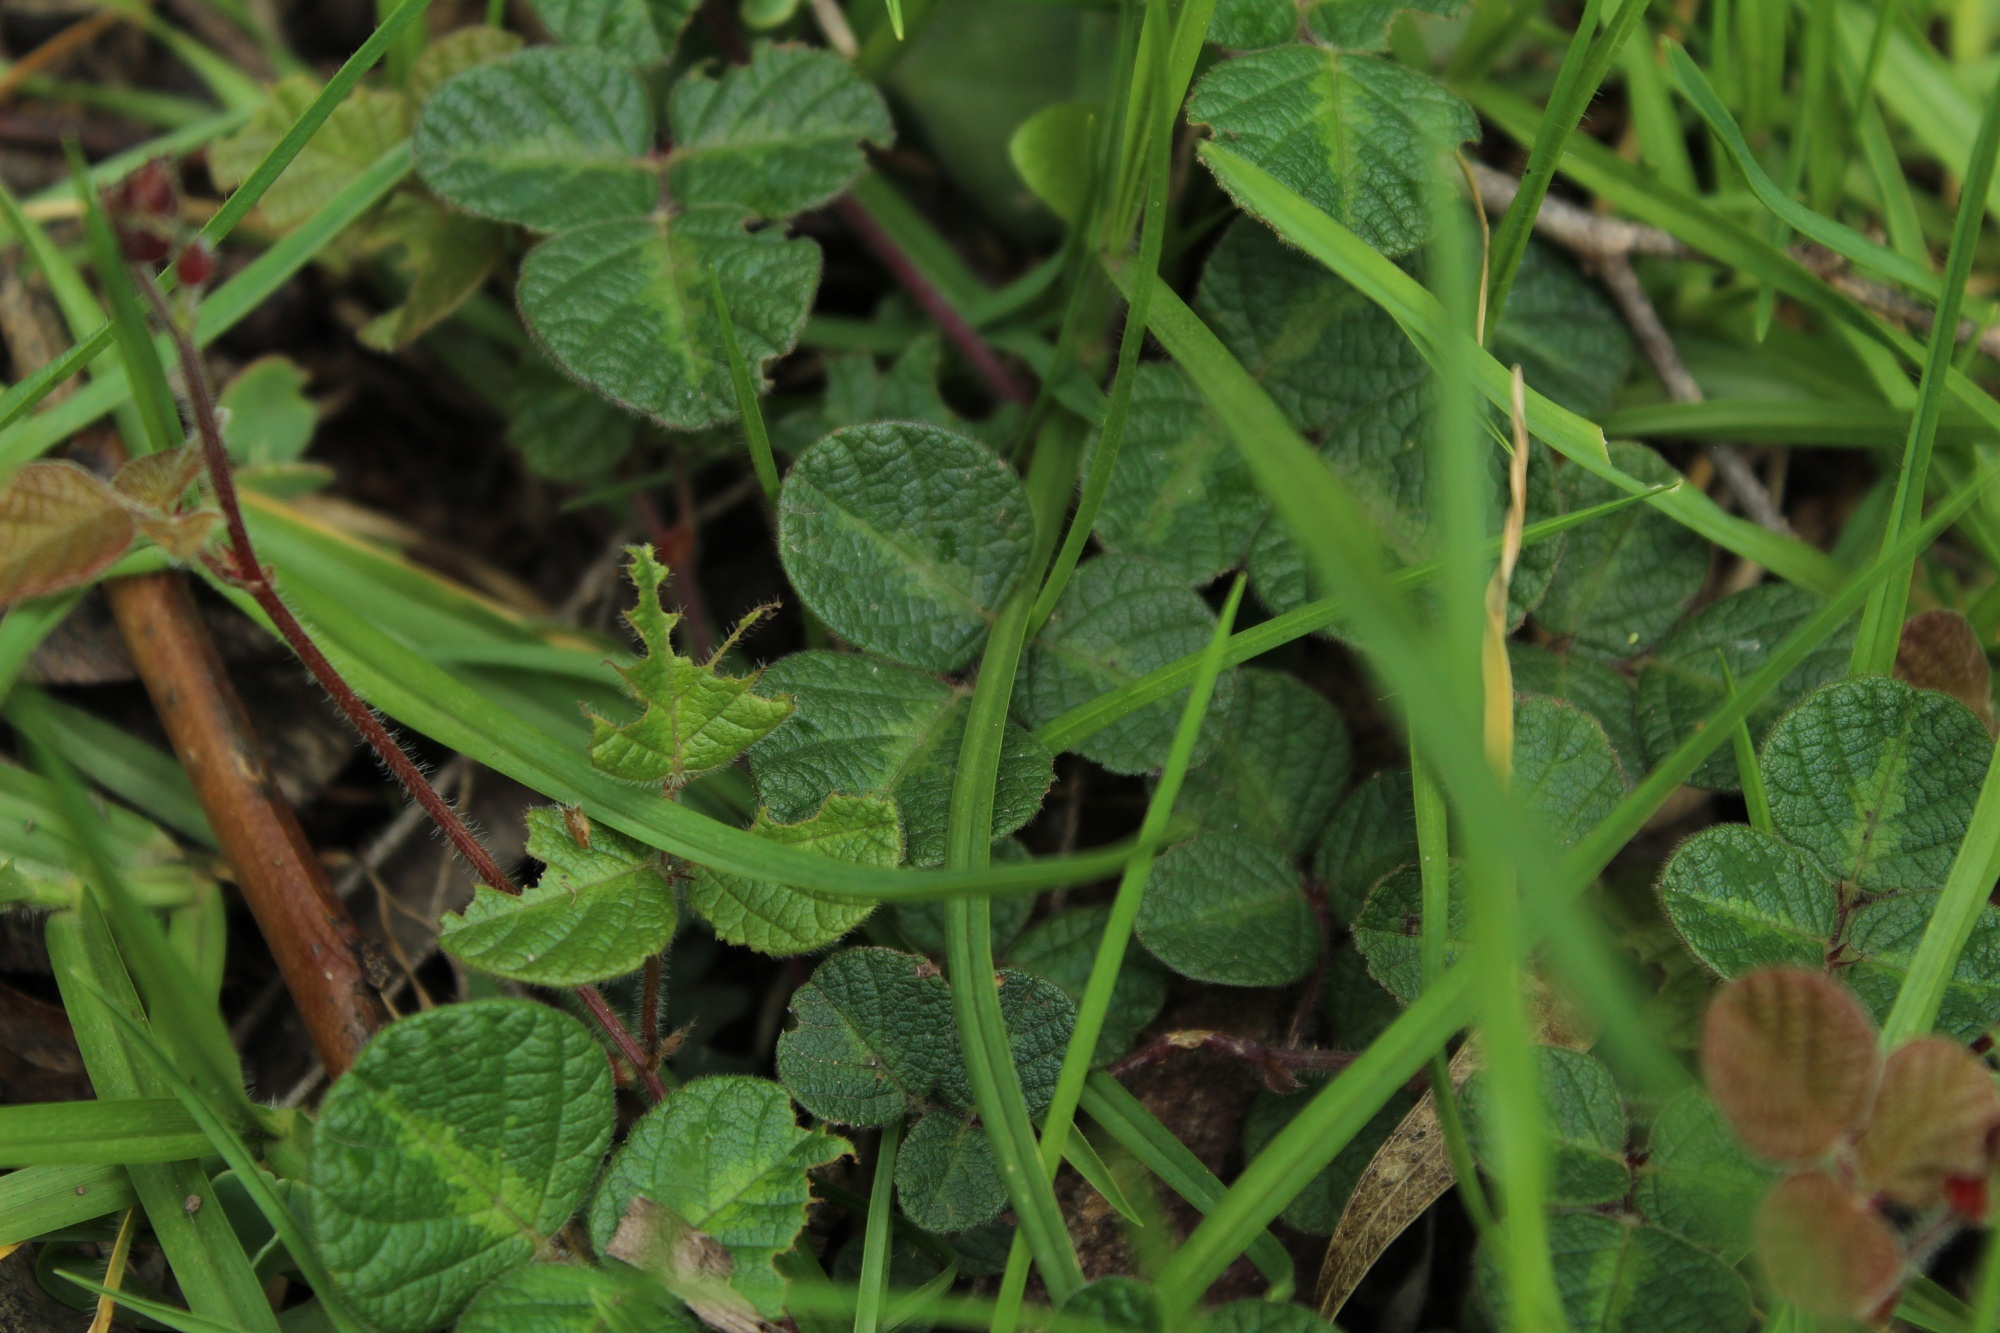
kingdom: Plantae
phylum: Tracheophyta
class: Magnoliopsida
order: Fabales
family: Fabaceae
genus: Desmodium
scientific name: Desmodium molliculum
